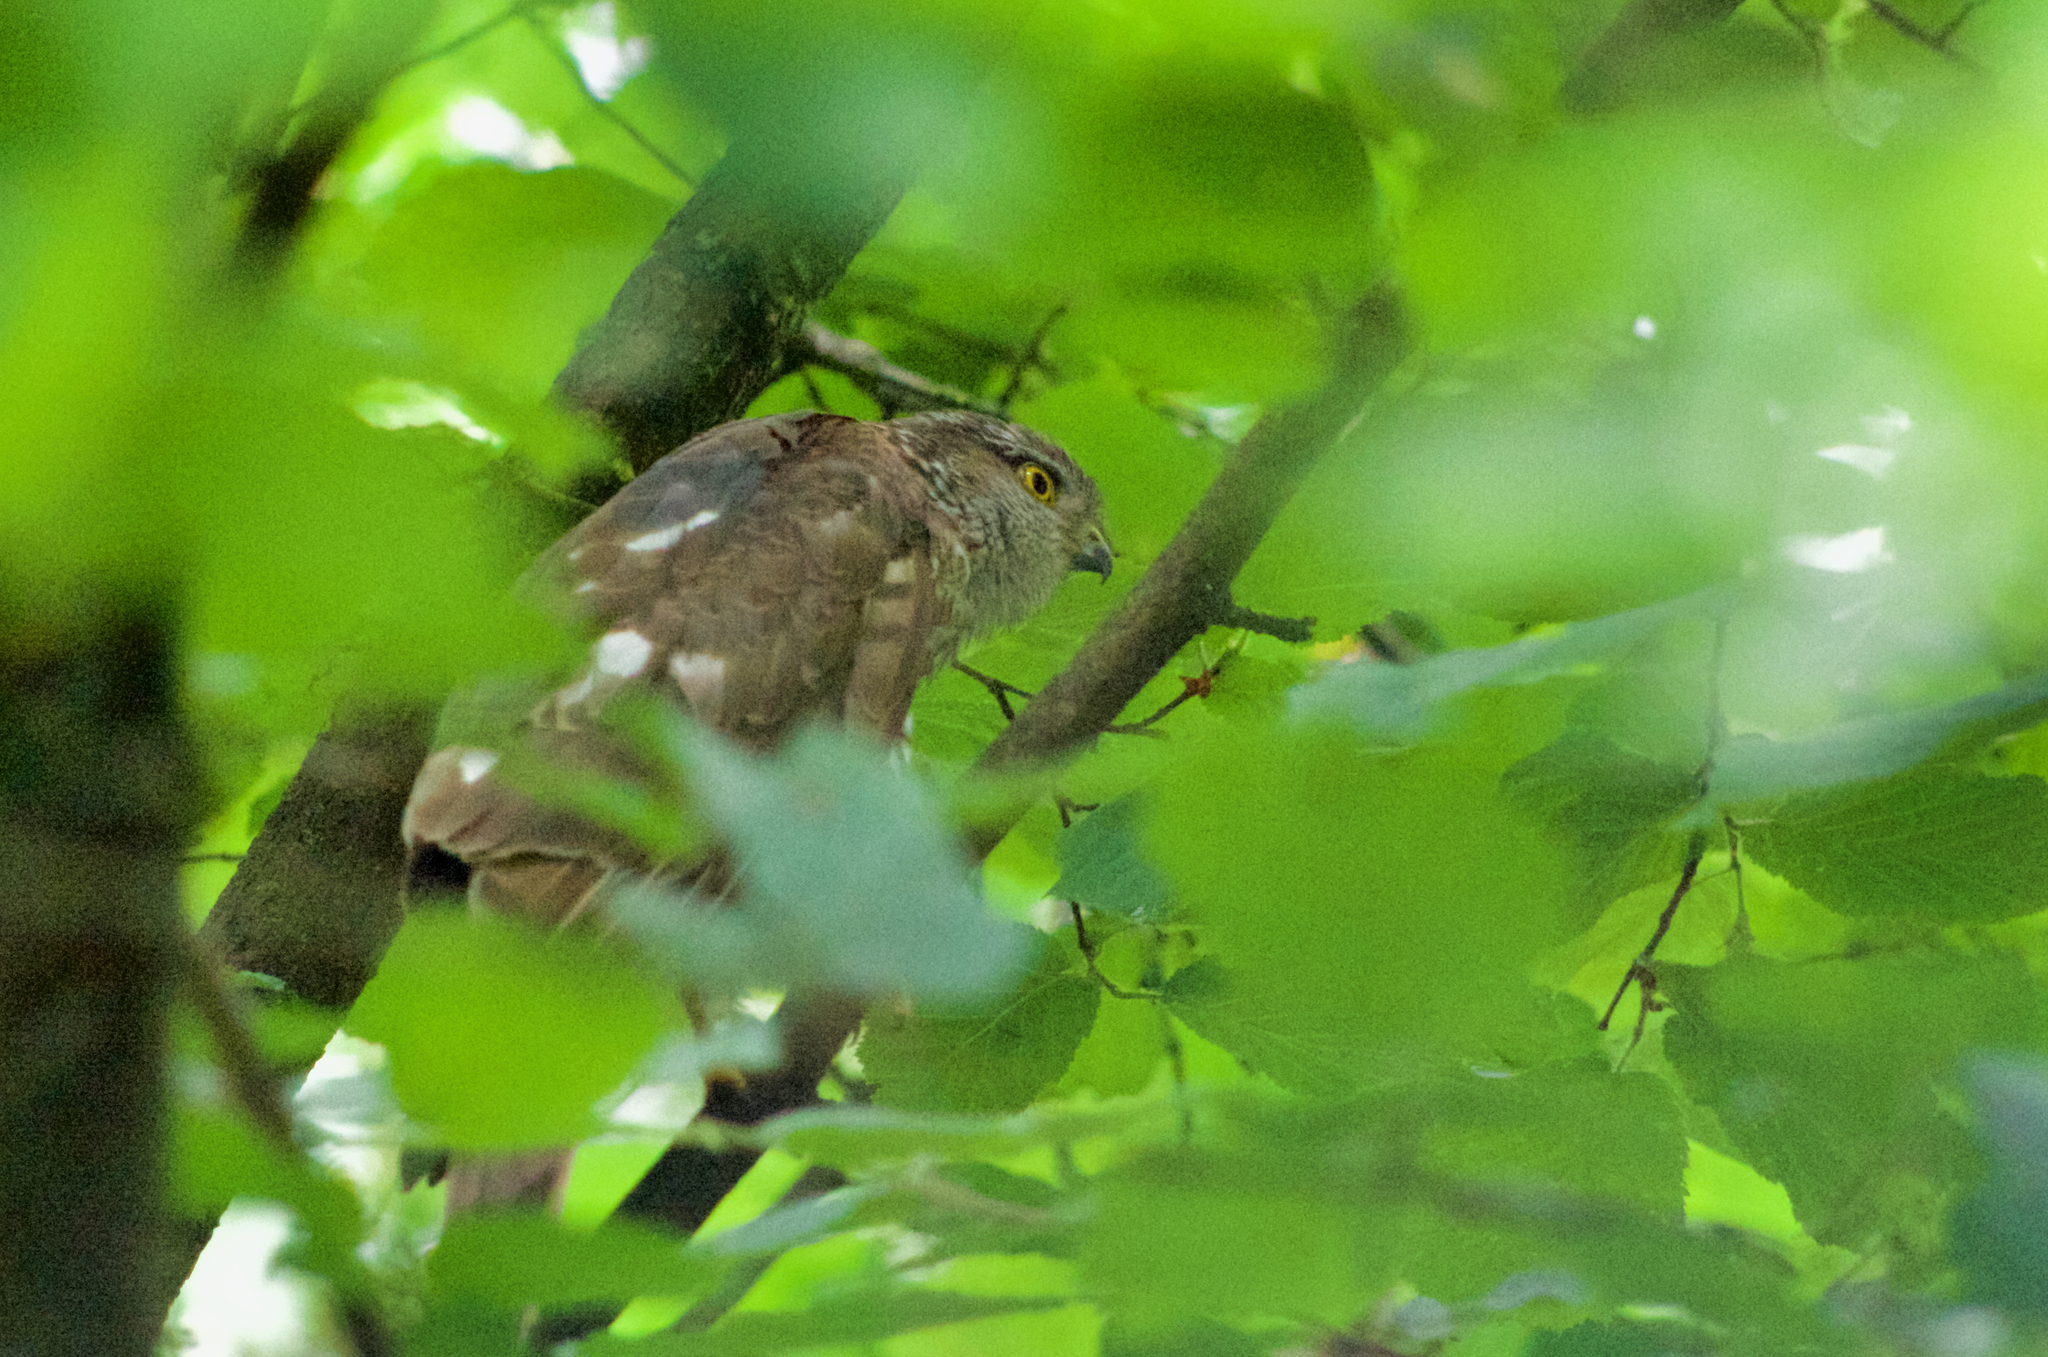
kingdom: Animalia
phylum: Chordata
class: Aves
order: Accipitriformes
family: Accipitridae
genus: Accipiter
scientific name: Accipiter nisus
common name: Eurasian sparrowhawk
